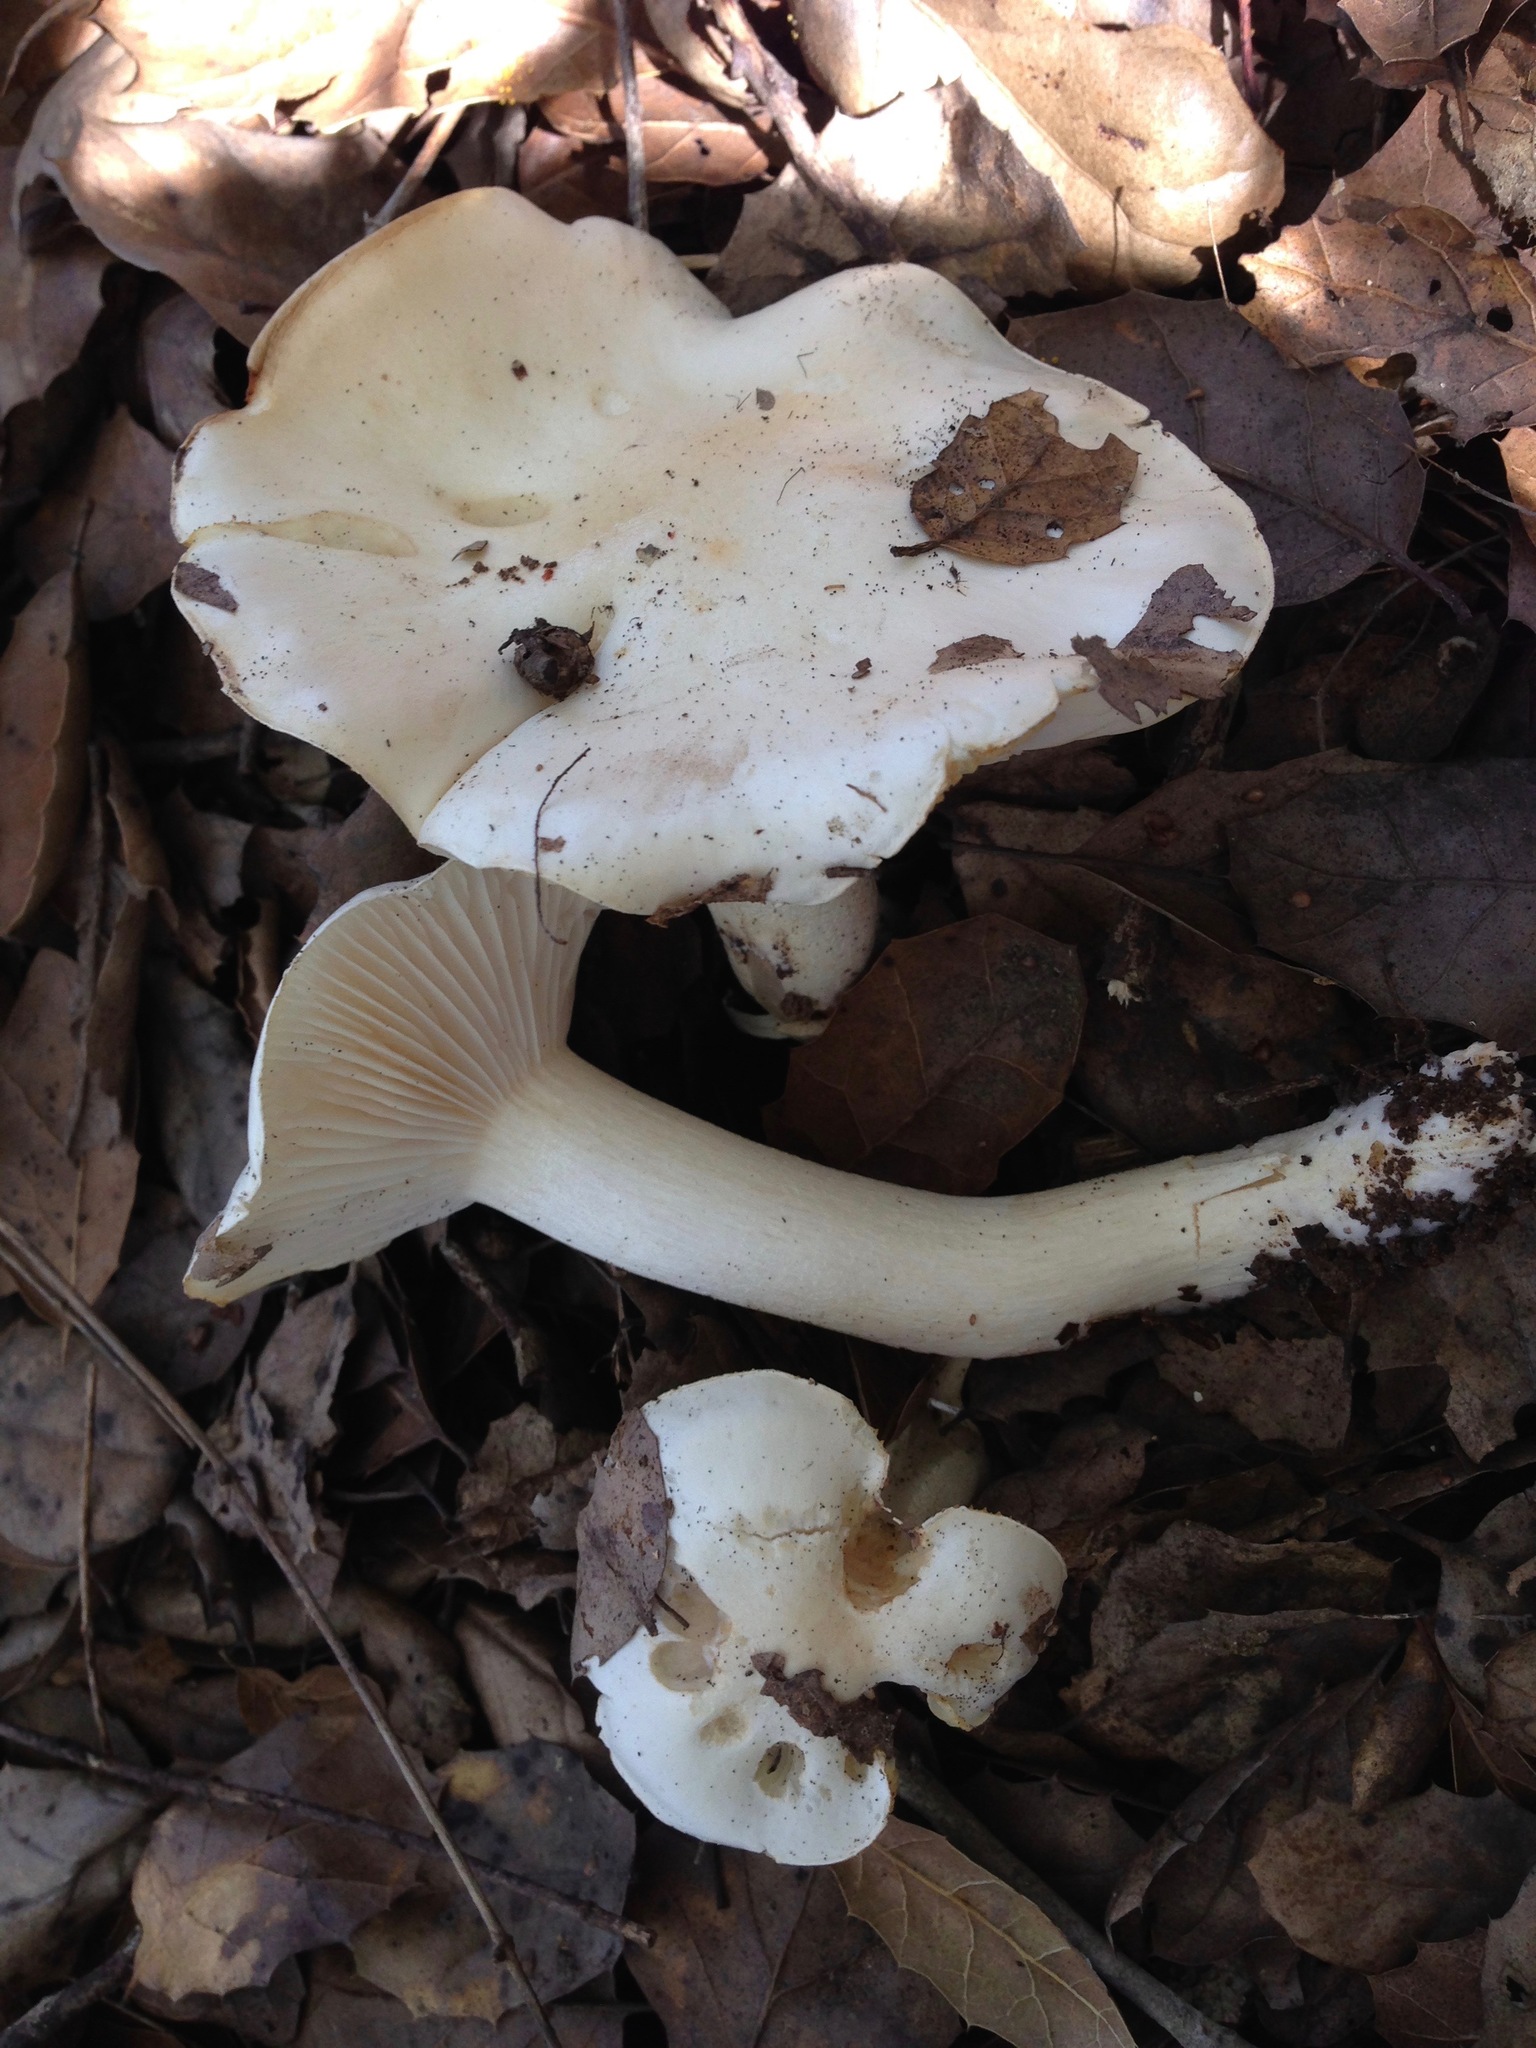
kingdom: Fungi
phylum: Basidiomycota
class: Agaricomycetes
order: Agaricales
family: Hygrophoraceae
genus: Hygrophorus
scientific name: Hygrophorus sordidus
